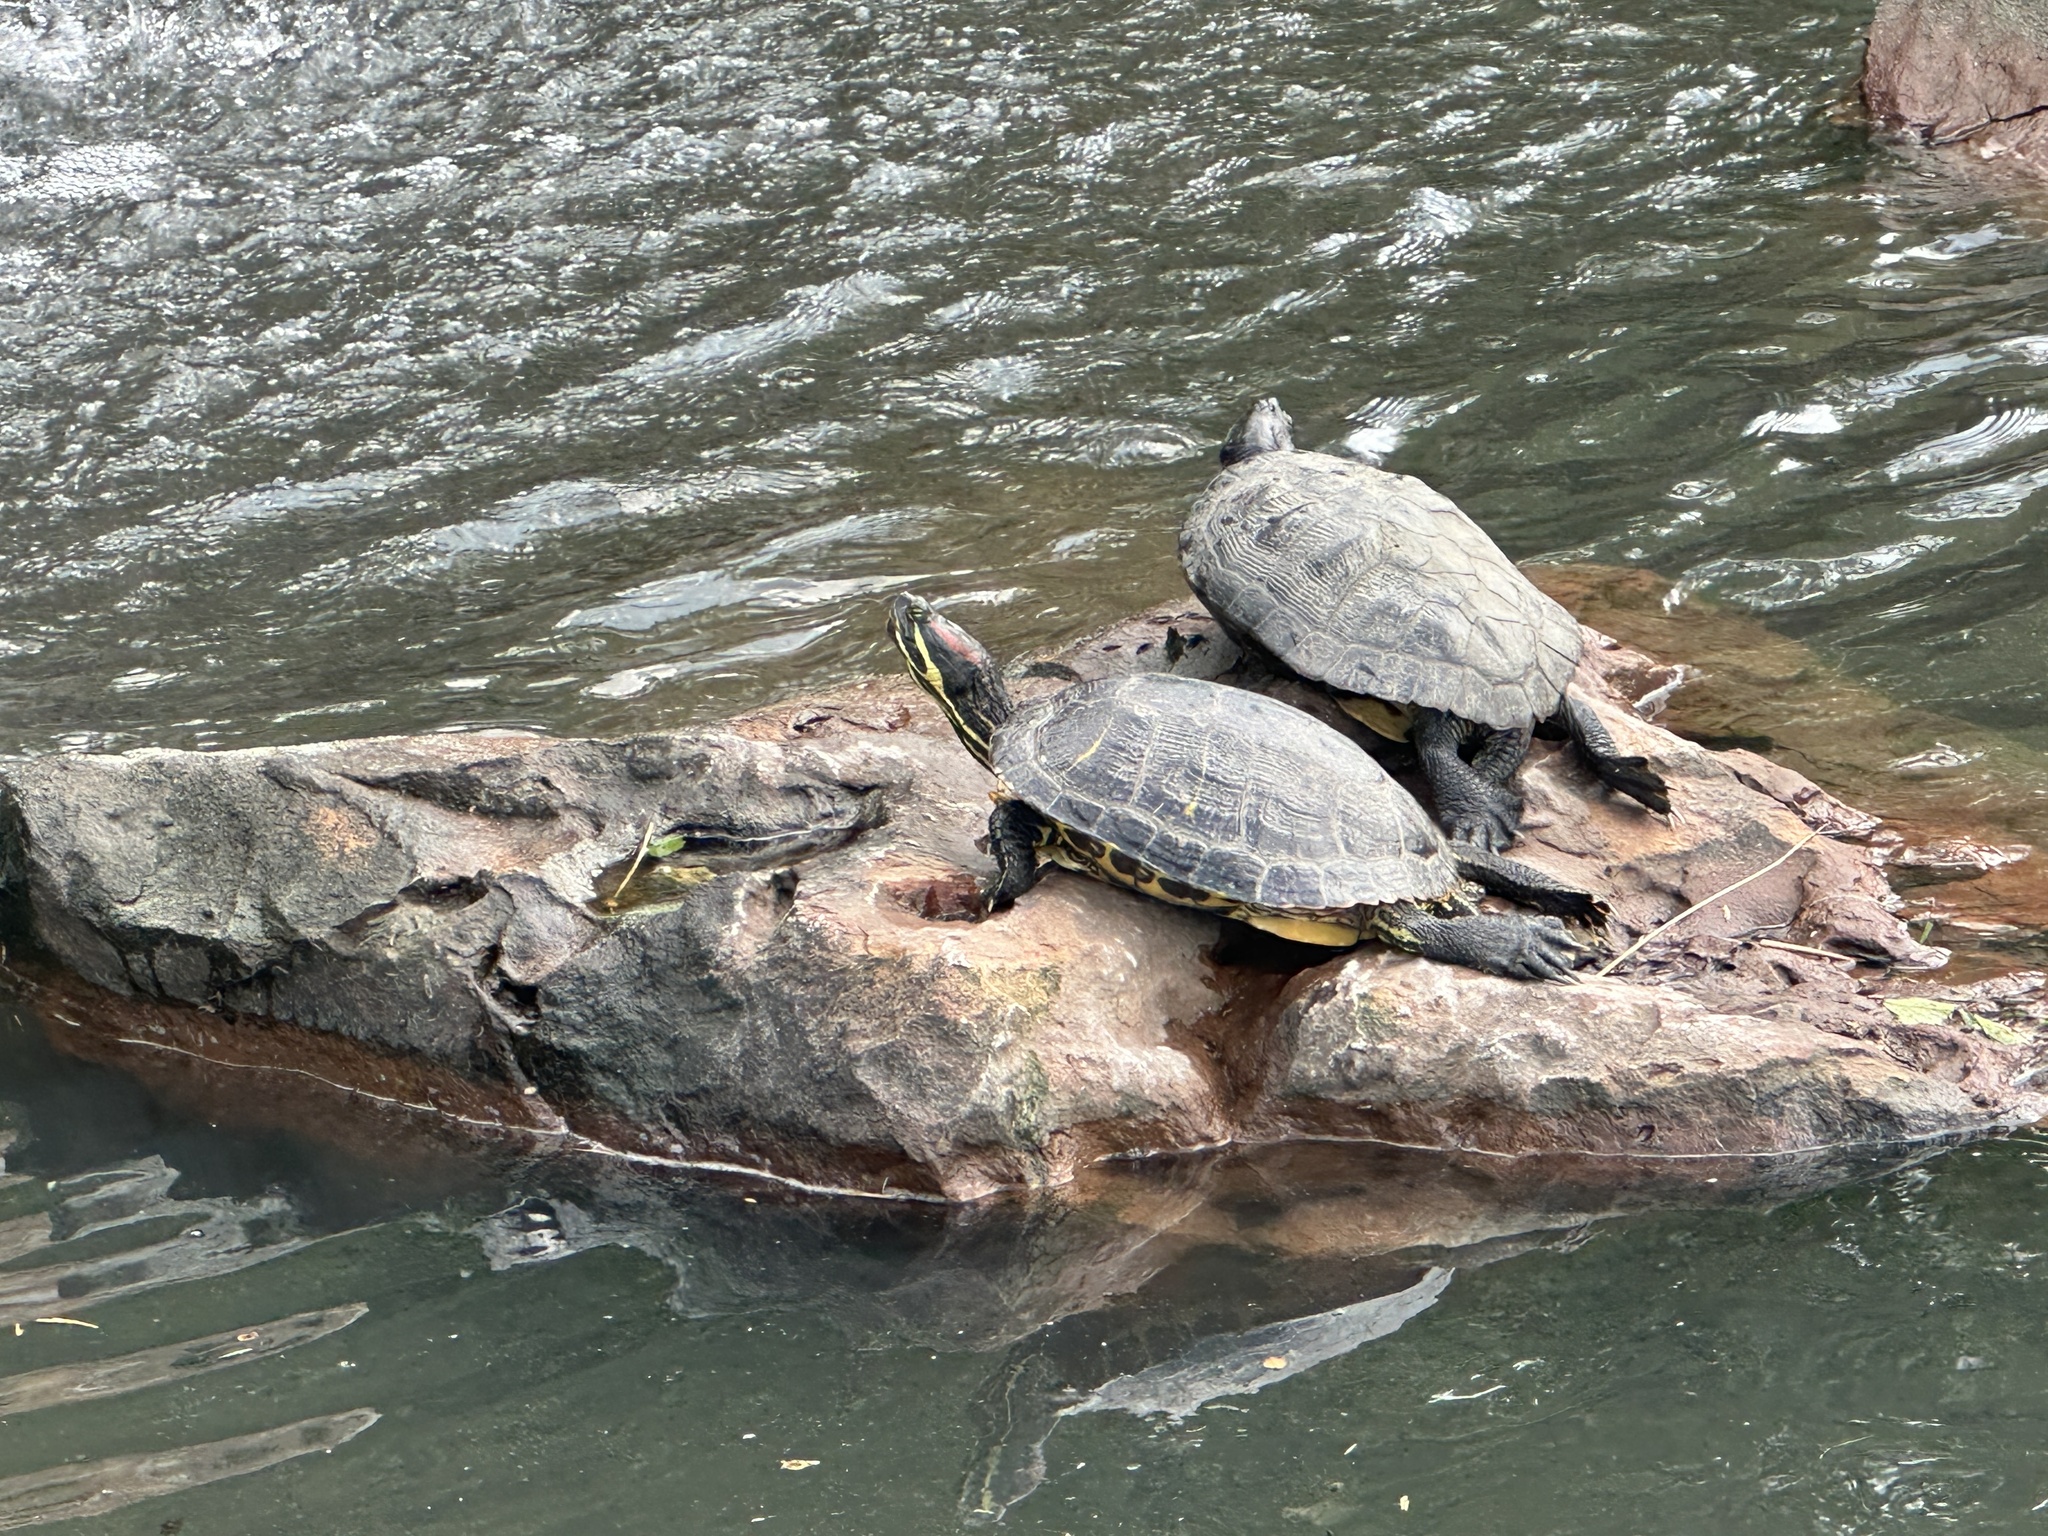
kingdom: Animalia
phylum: Chordata
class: Testudines
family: Emydidae
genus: Trachemys
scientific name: Trachemys scripta
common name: Slider
